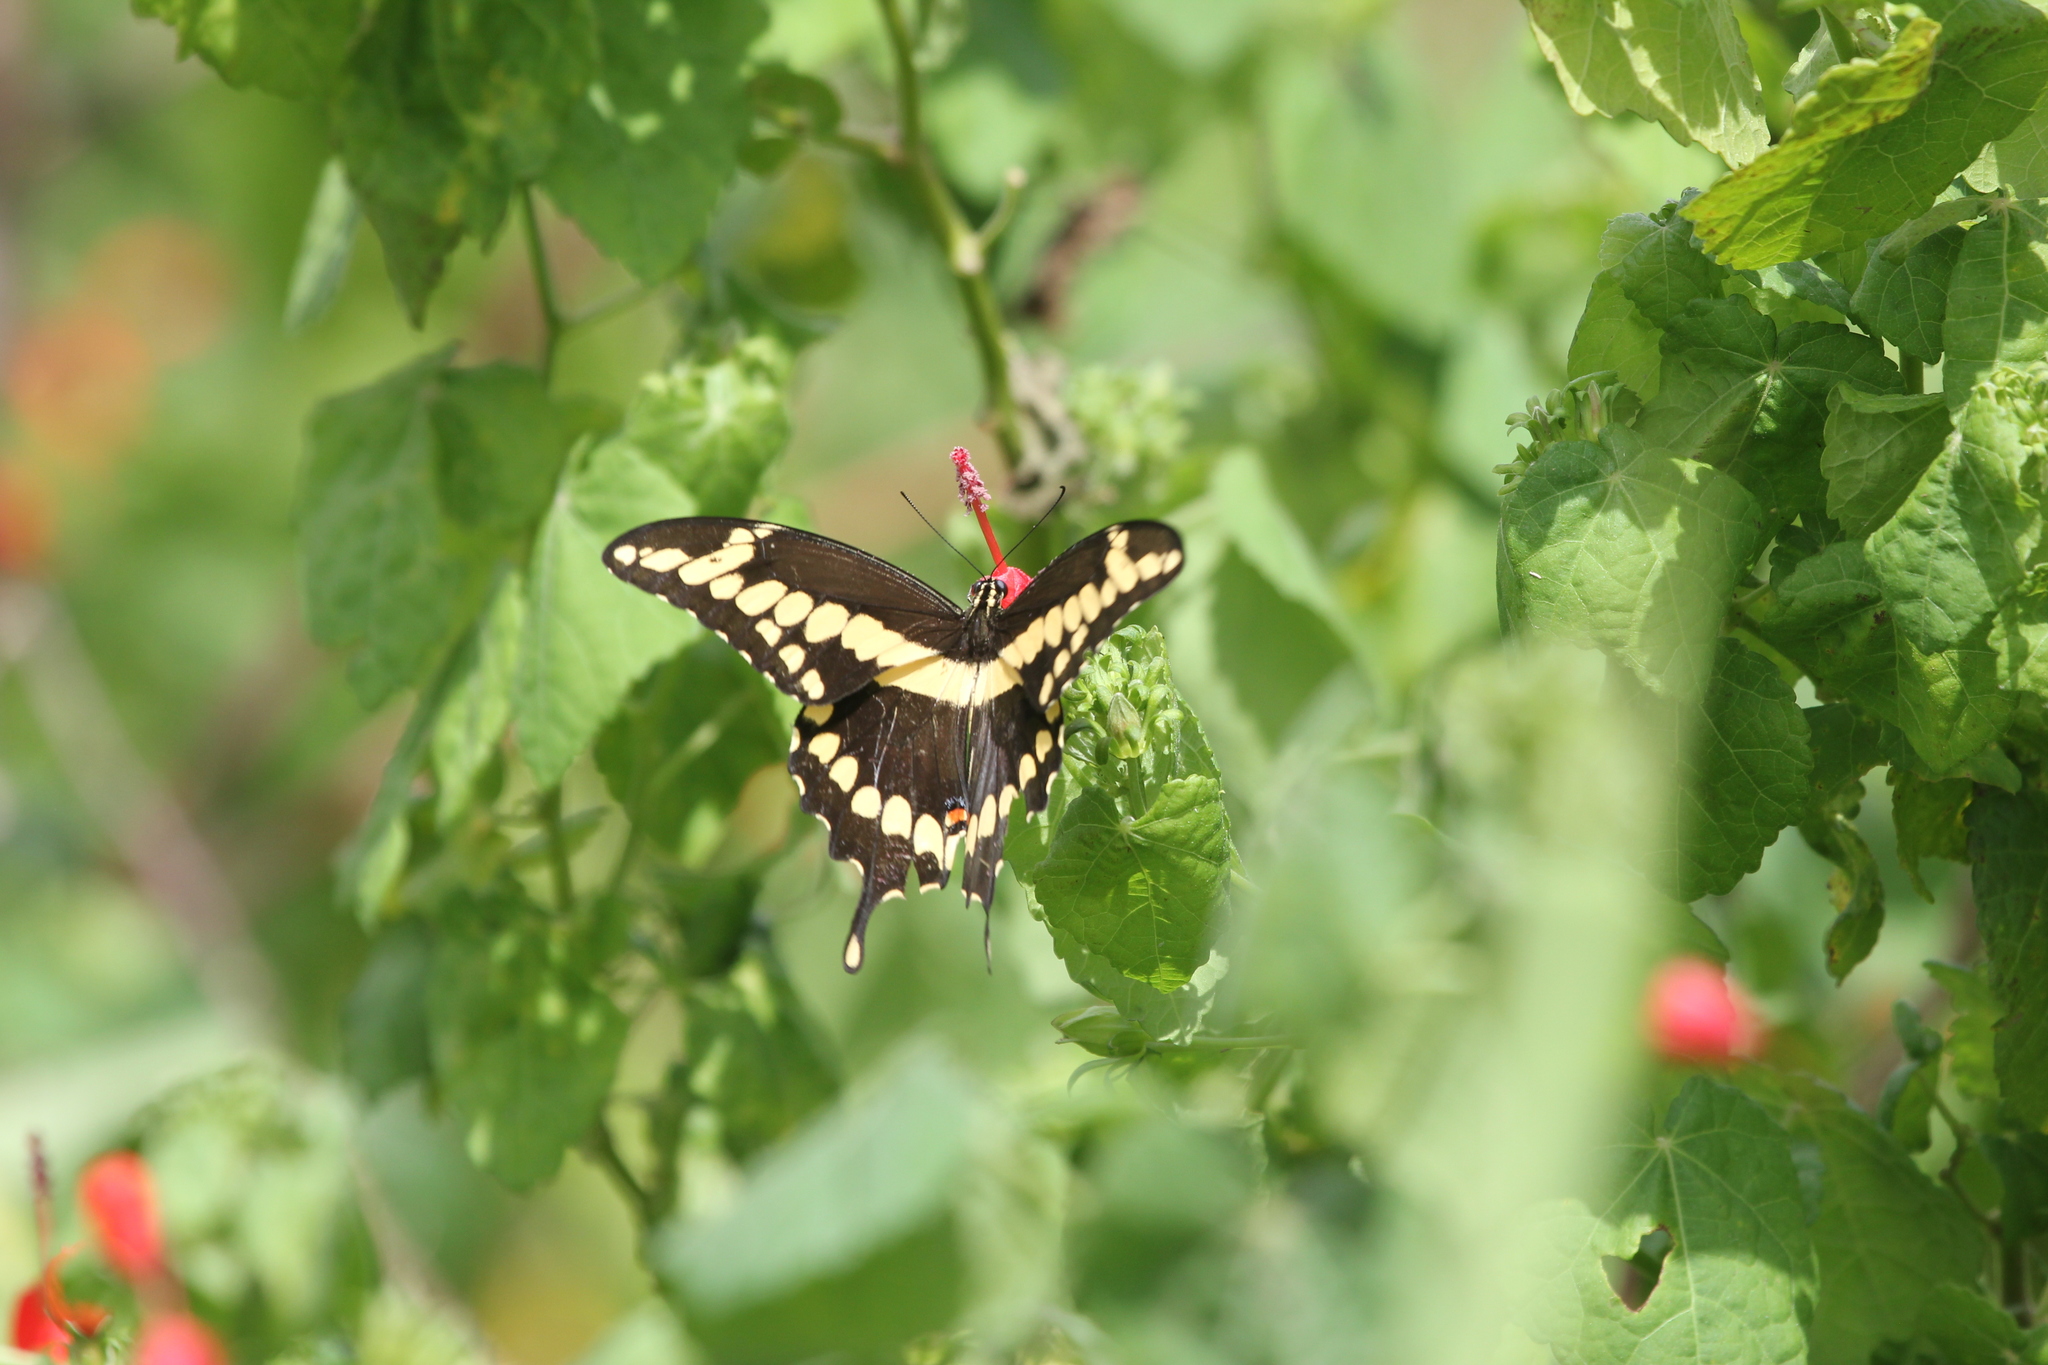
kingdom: Animalia
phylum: Arthropoda
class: Insecta
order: Lepidoptera
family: Papilionidae
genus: Papilio
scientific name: Papilio cresphontes
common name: Giant swallowtail
